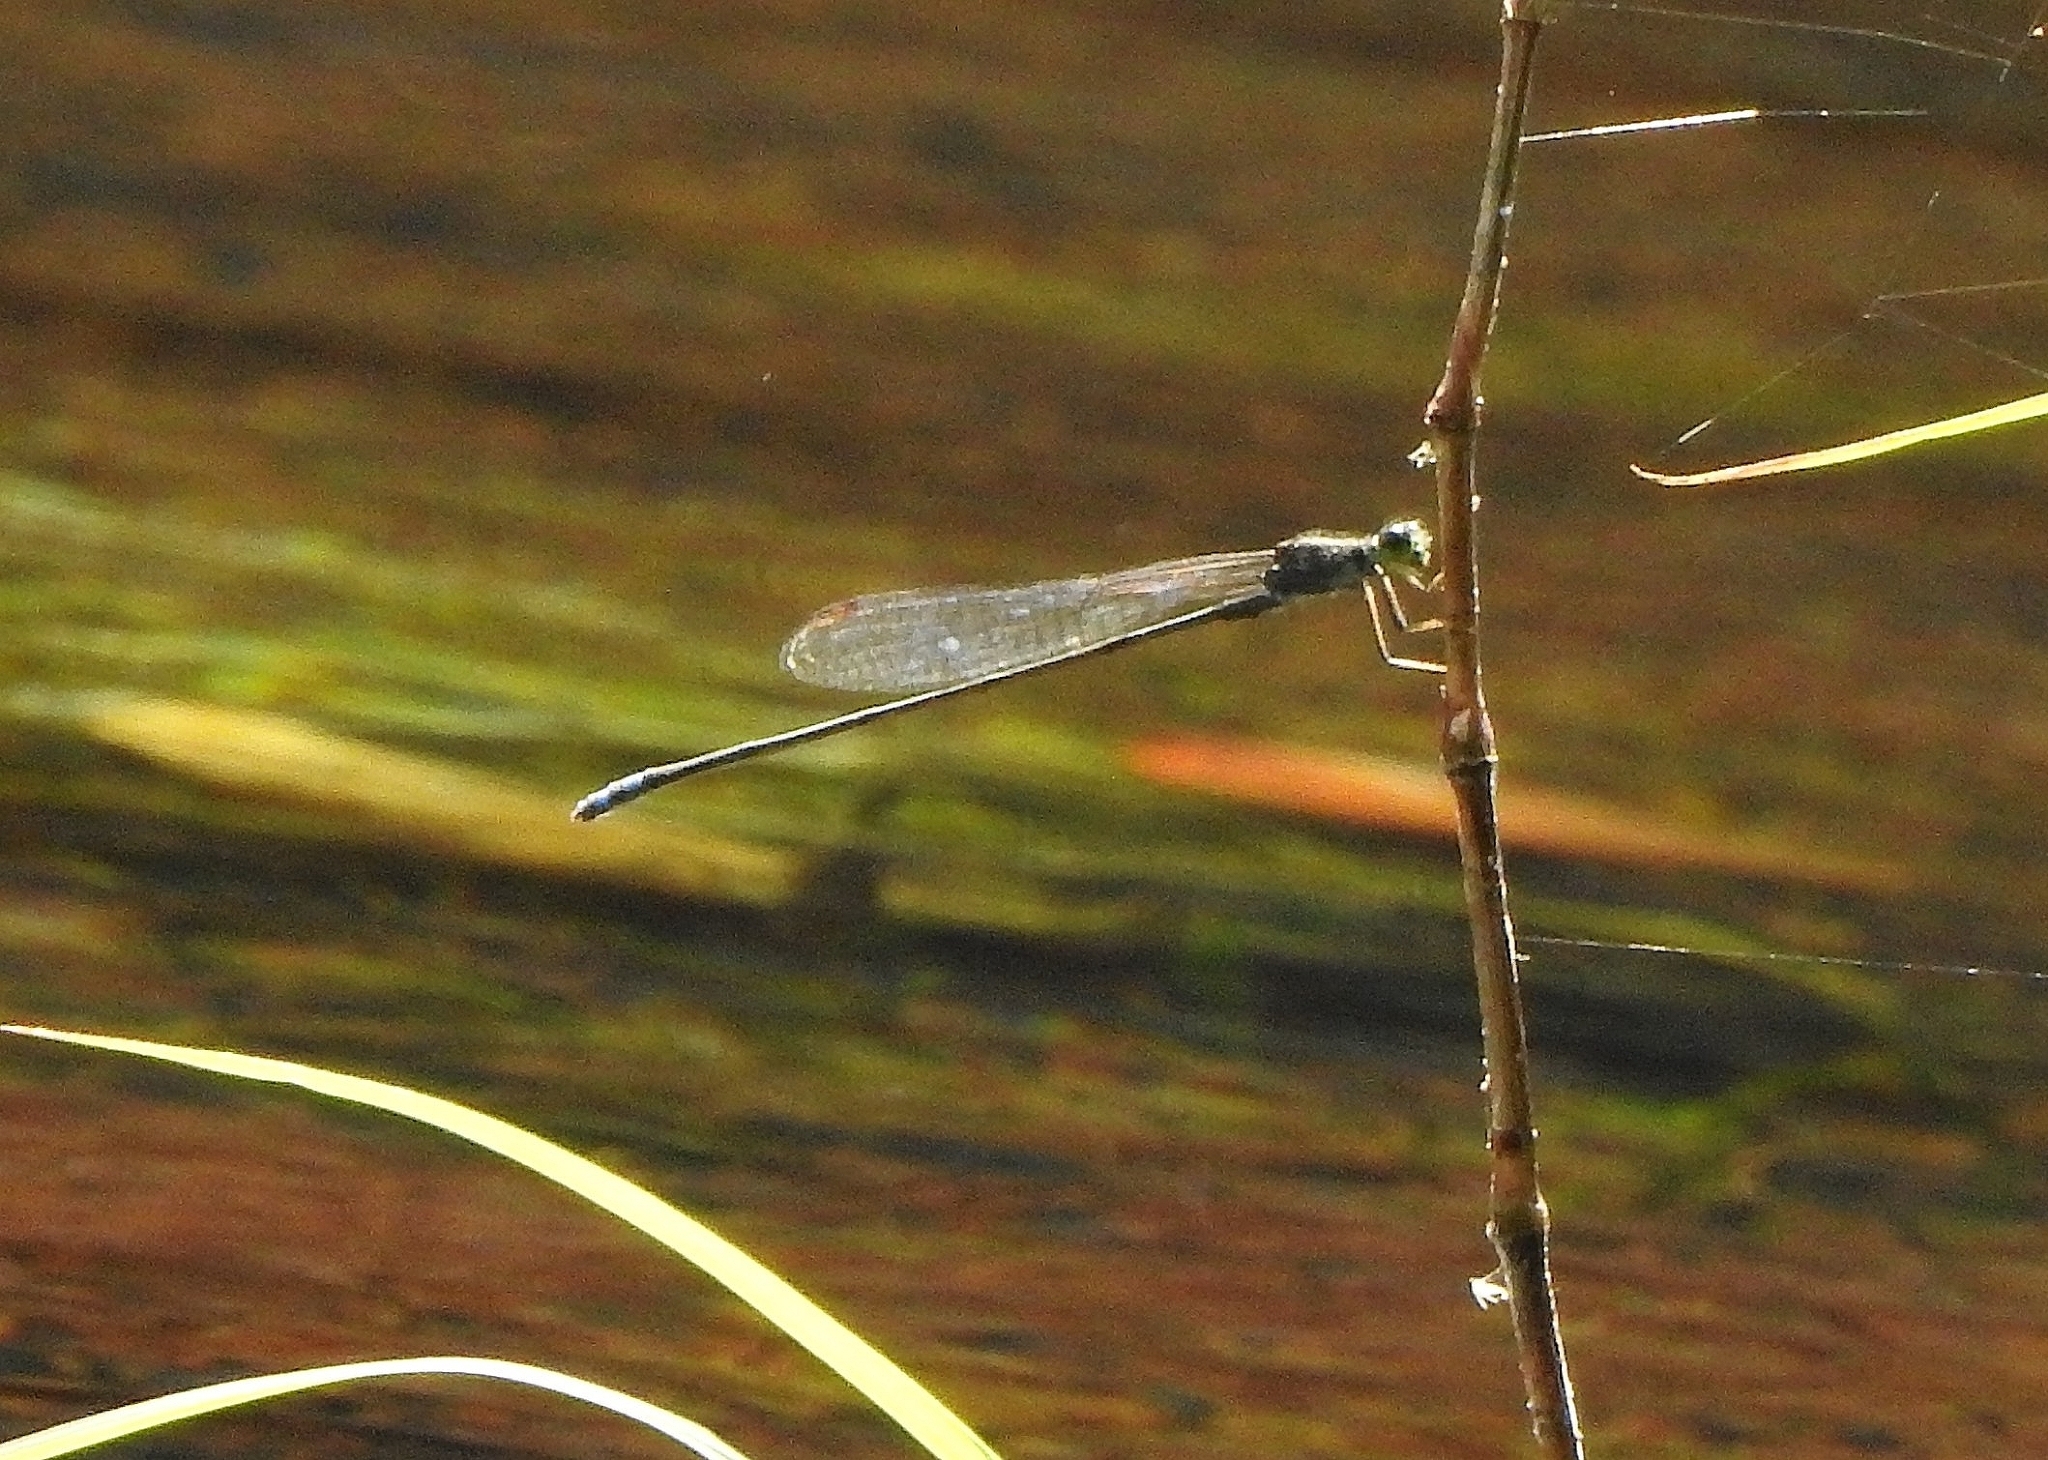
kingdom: Animalia
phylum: Arthropoda
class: Insecta
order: Odonata
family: Coenagrionidae
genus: Pseudagrion
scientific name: Pseudagrion indicum
